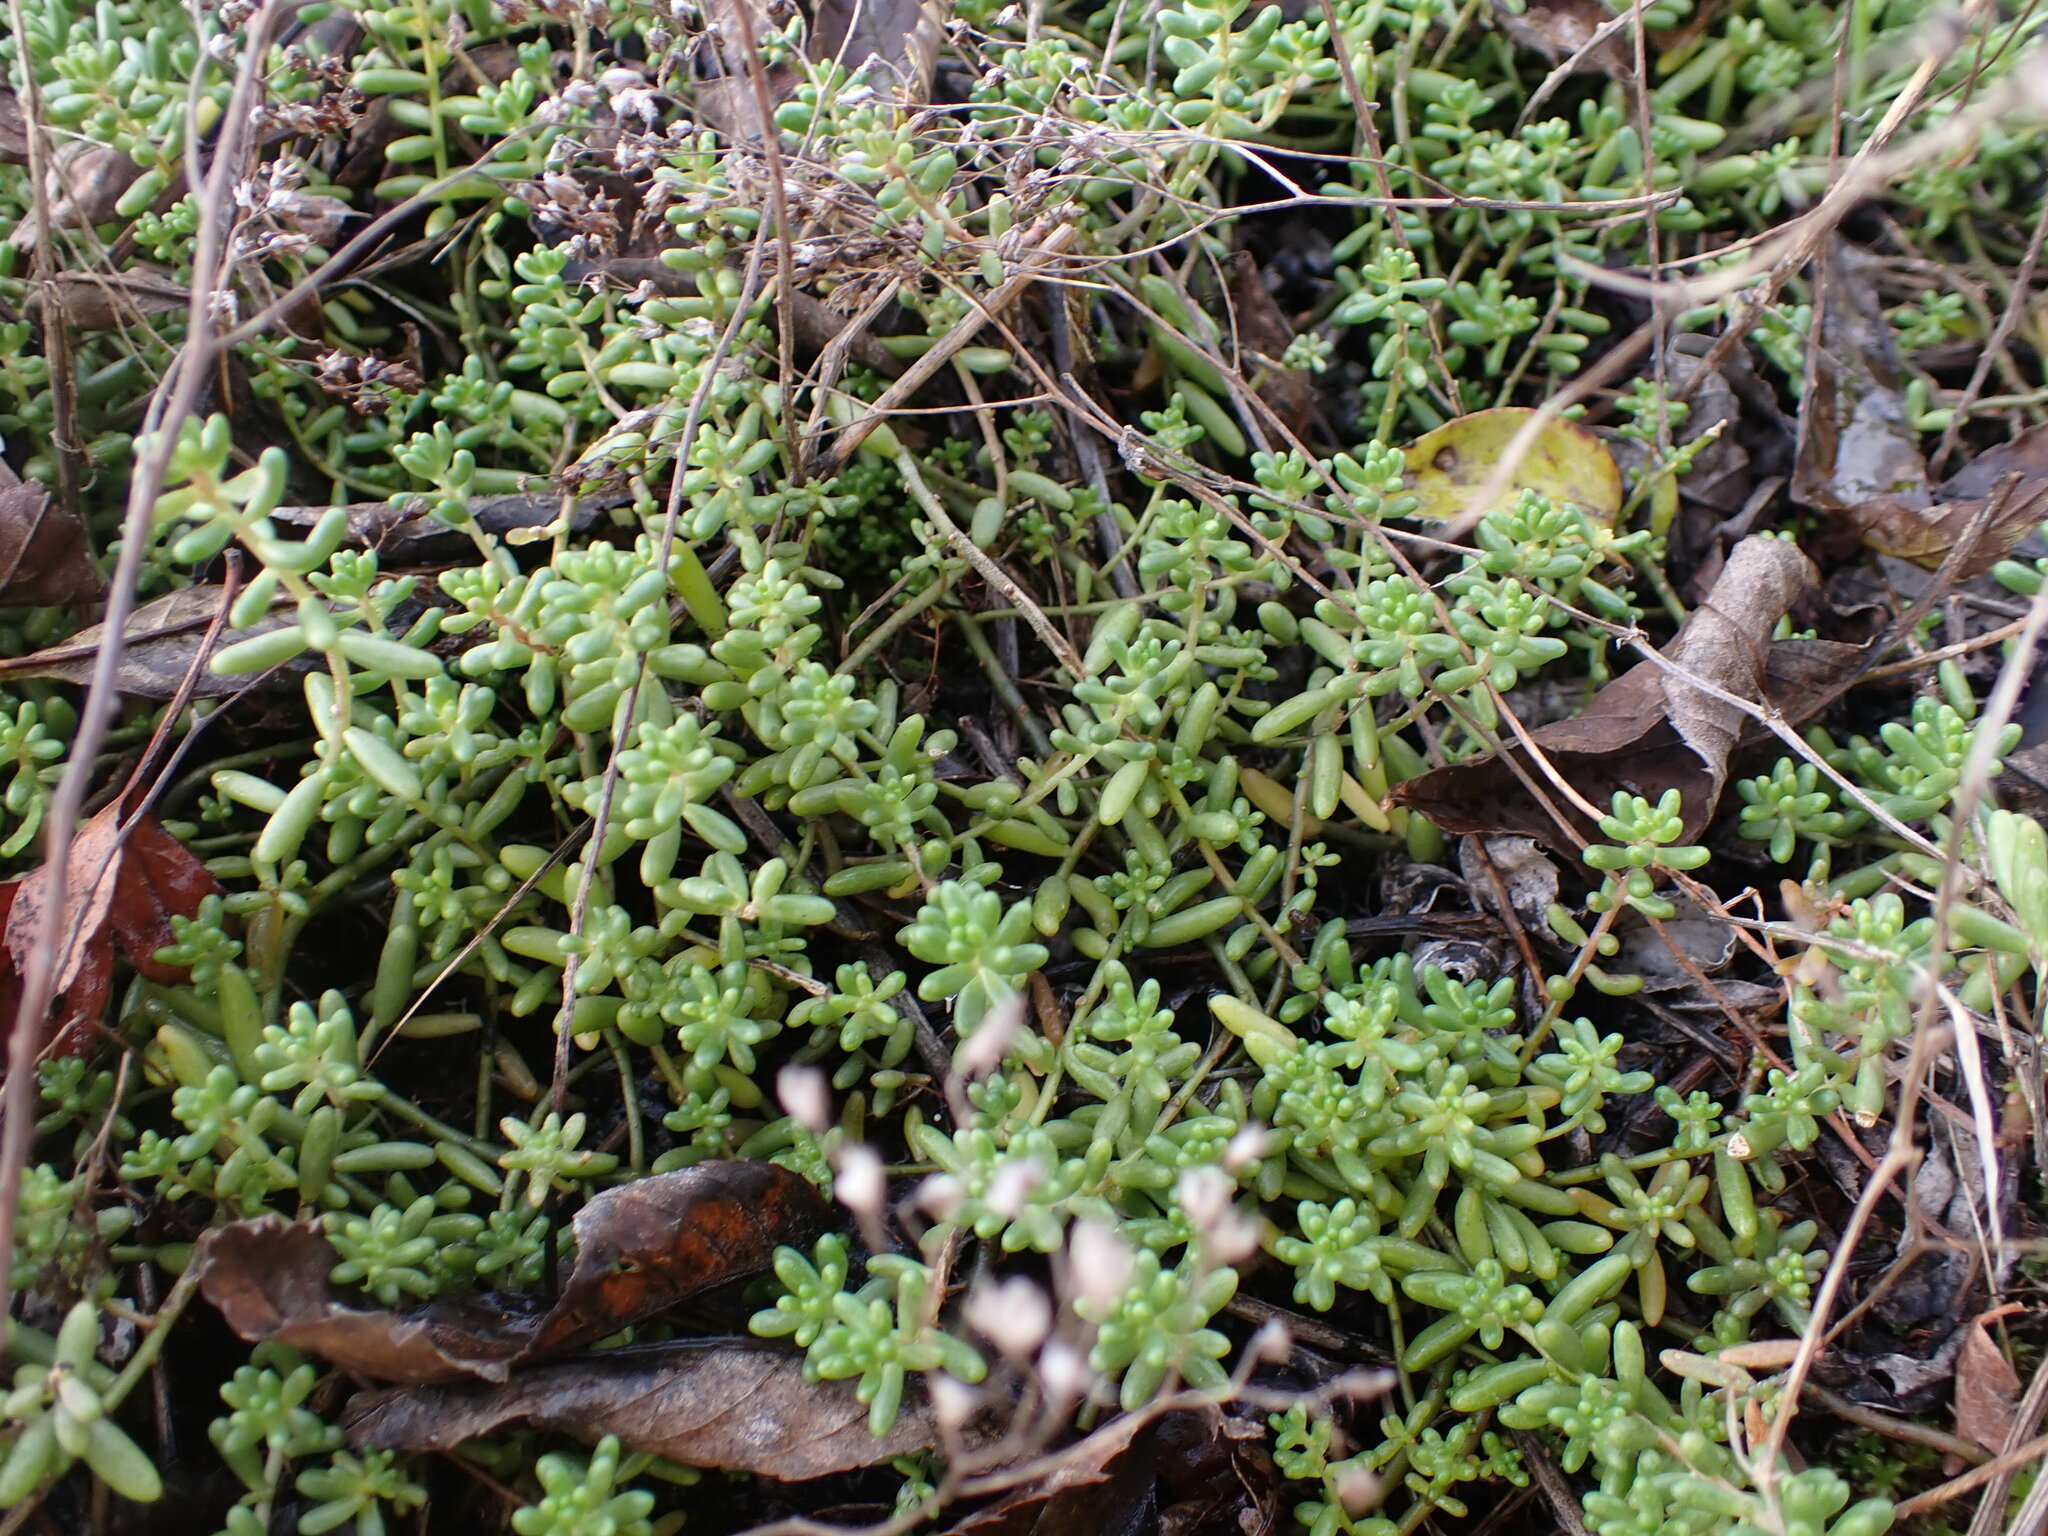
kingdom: Plantae
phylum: Tracheophyta
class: Magnoliopsida
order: Saxifragales
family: Crassulaceae
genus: Sedum
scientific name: Sedum album
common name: White stonecrop
